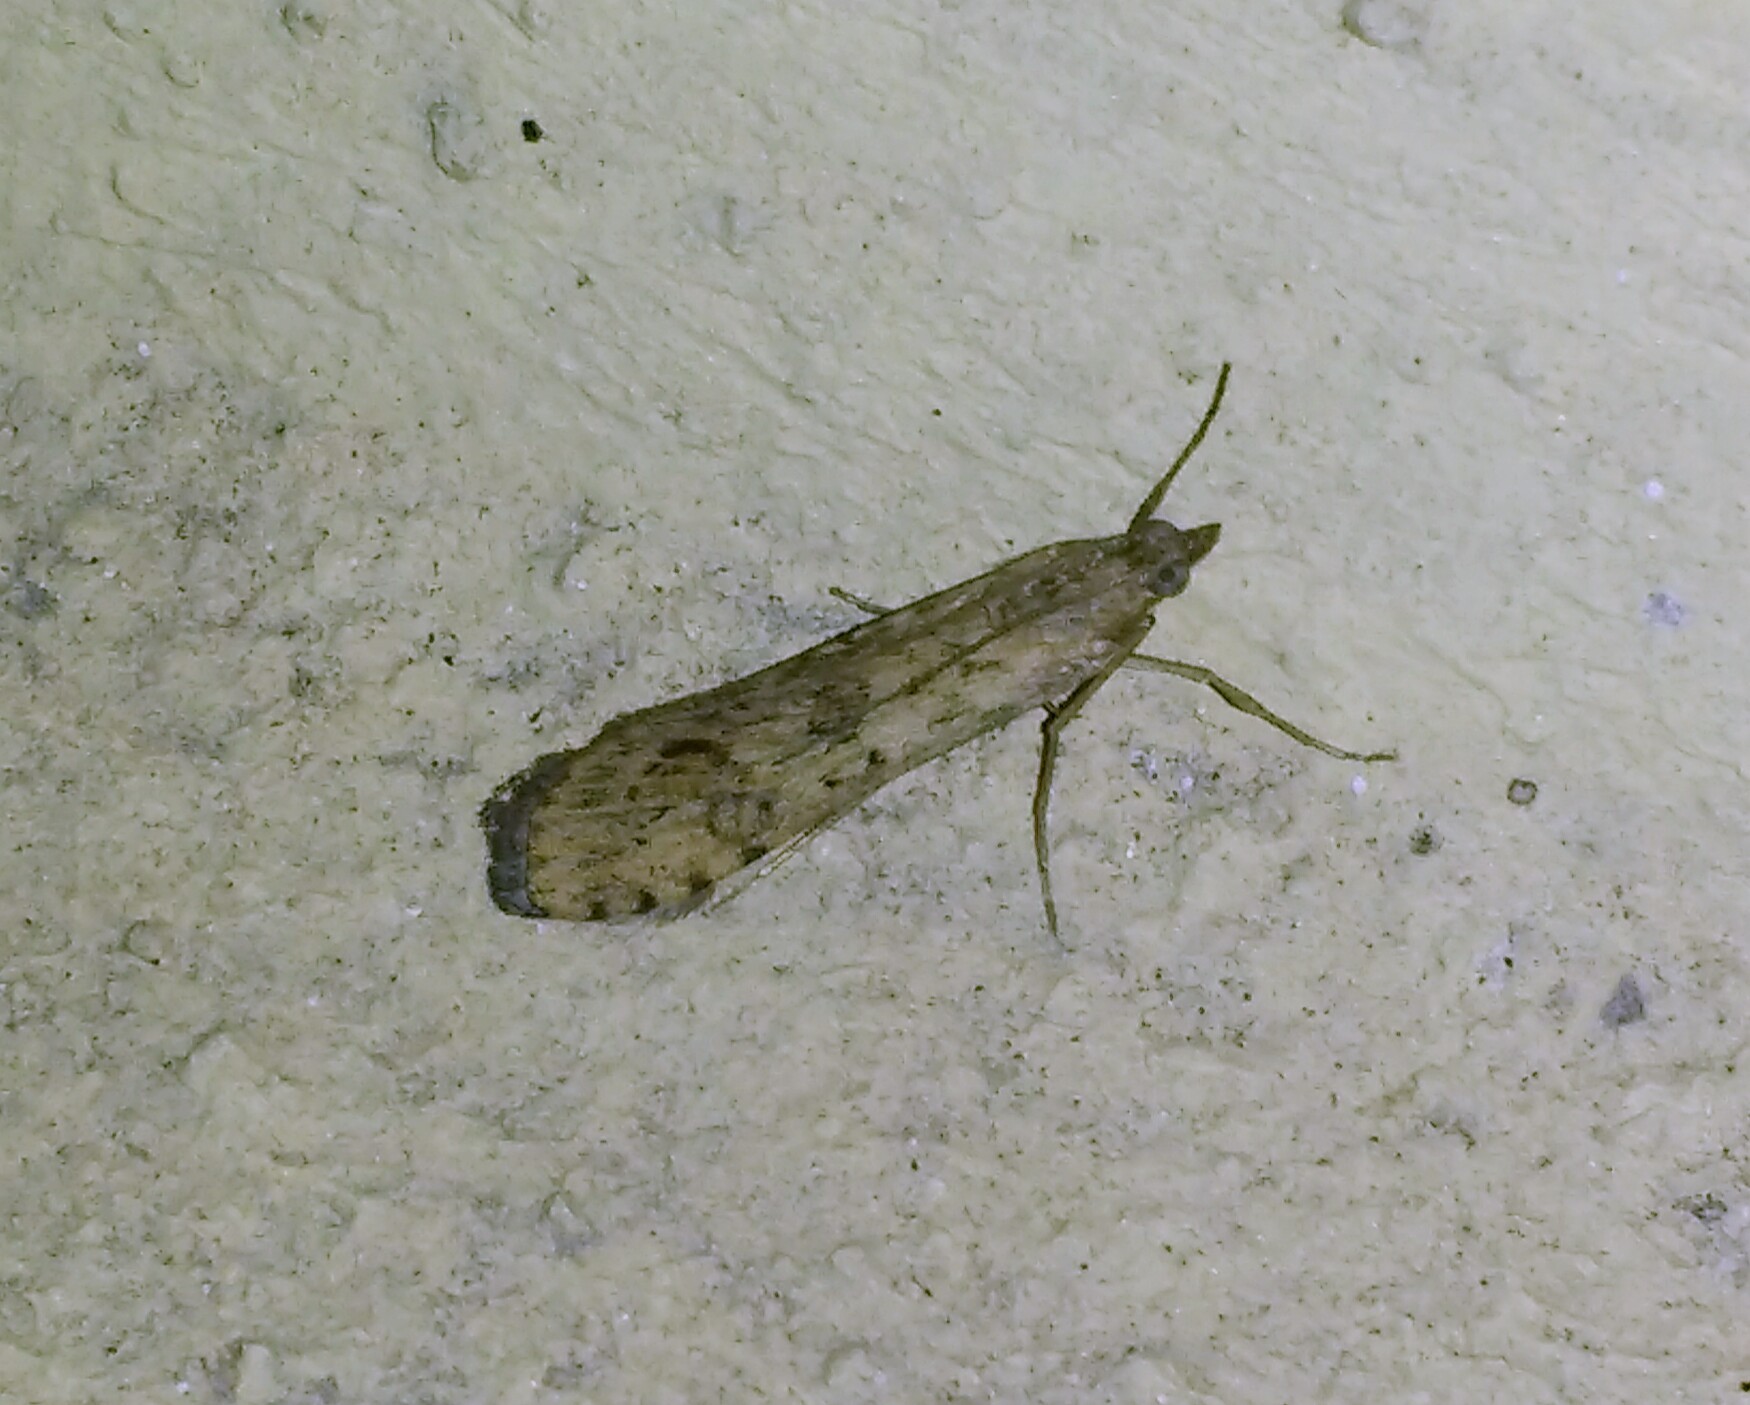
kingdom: Animalia
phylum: Arthropoda
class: Insecta
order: Lepidoptera
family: Crambidae
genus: Nomophila
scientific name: Nomophila noctuella
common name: Rush veneer
